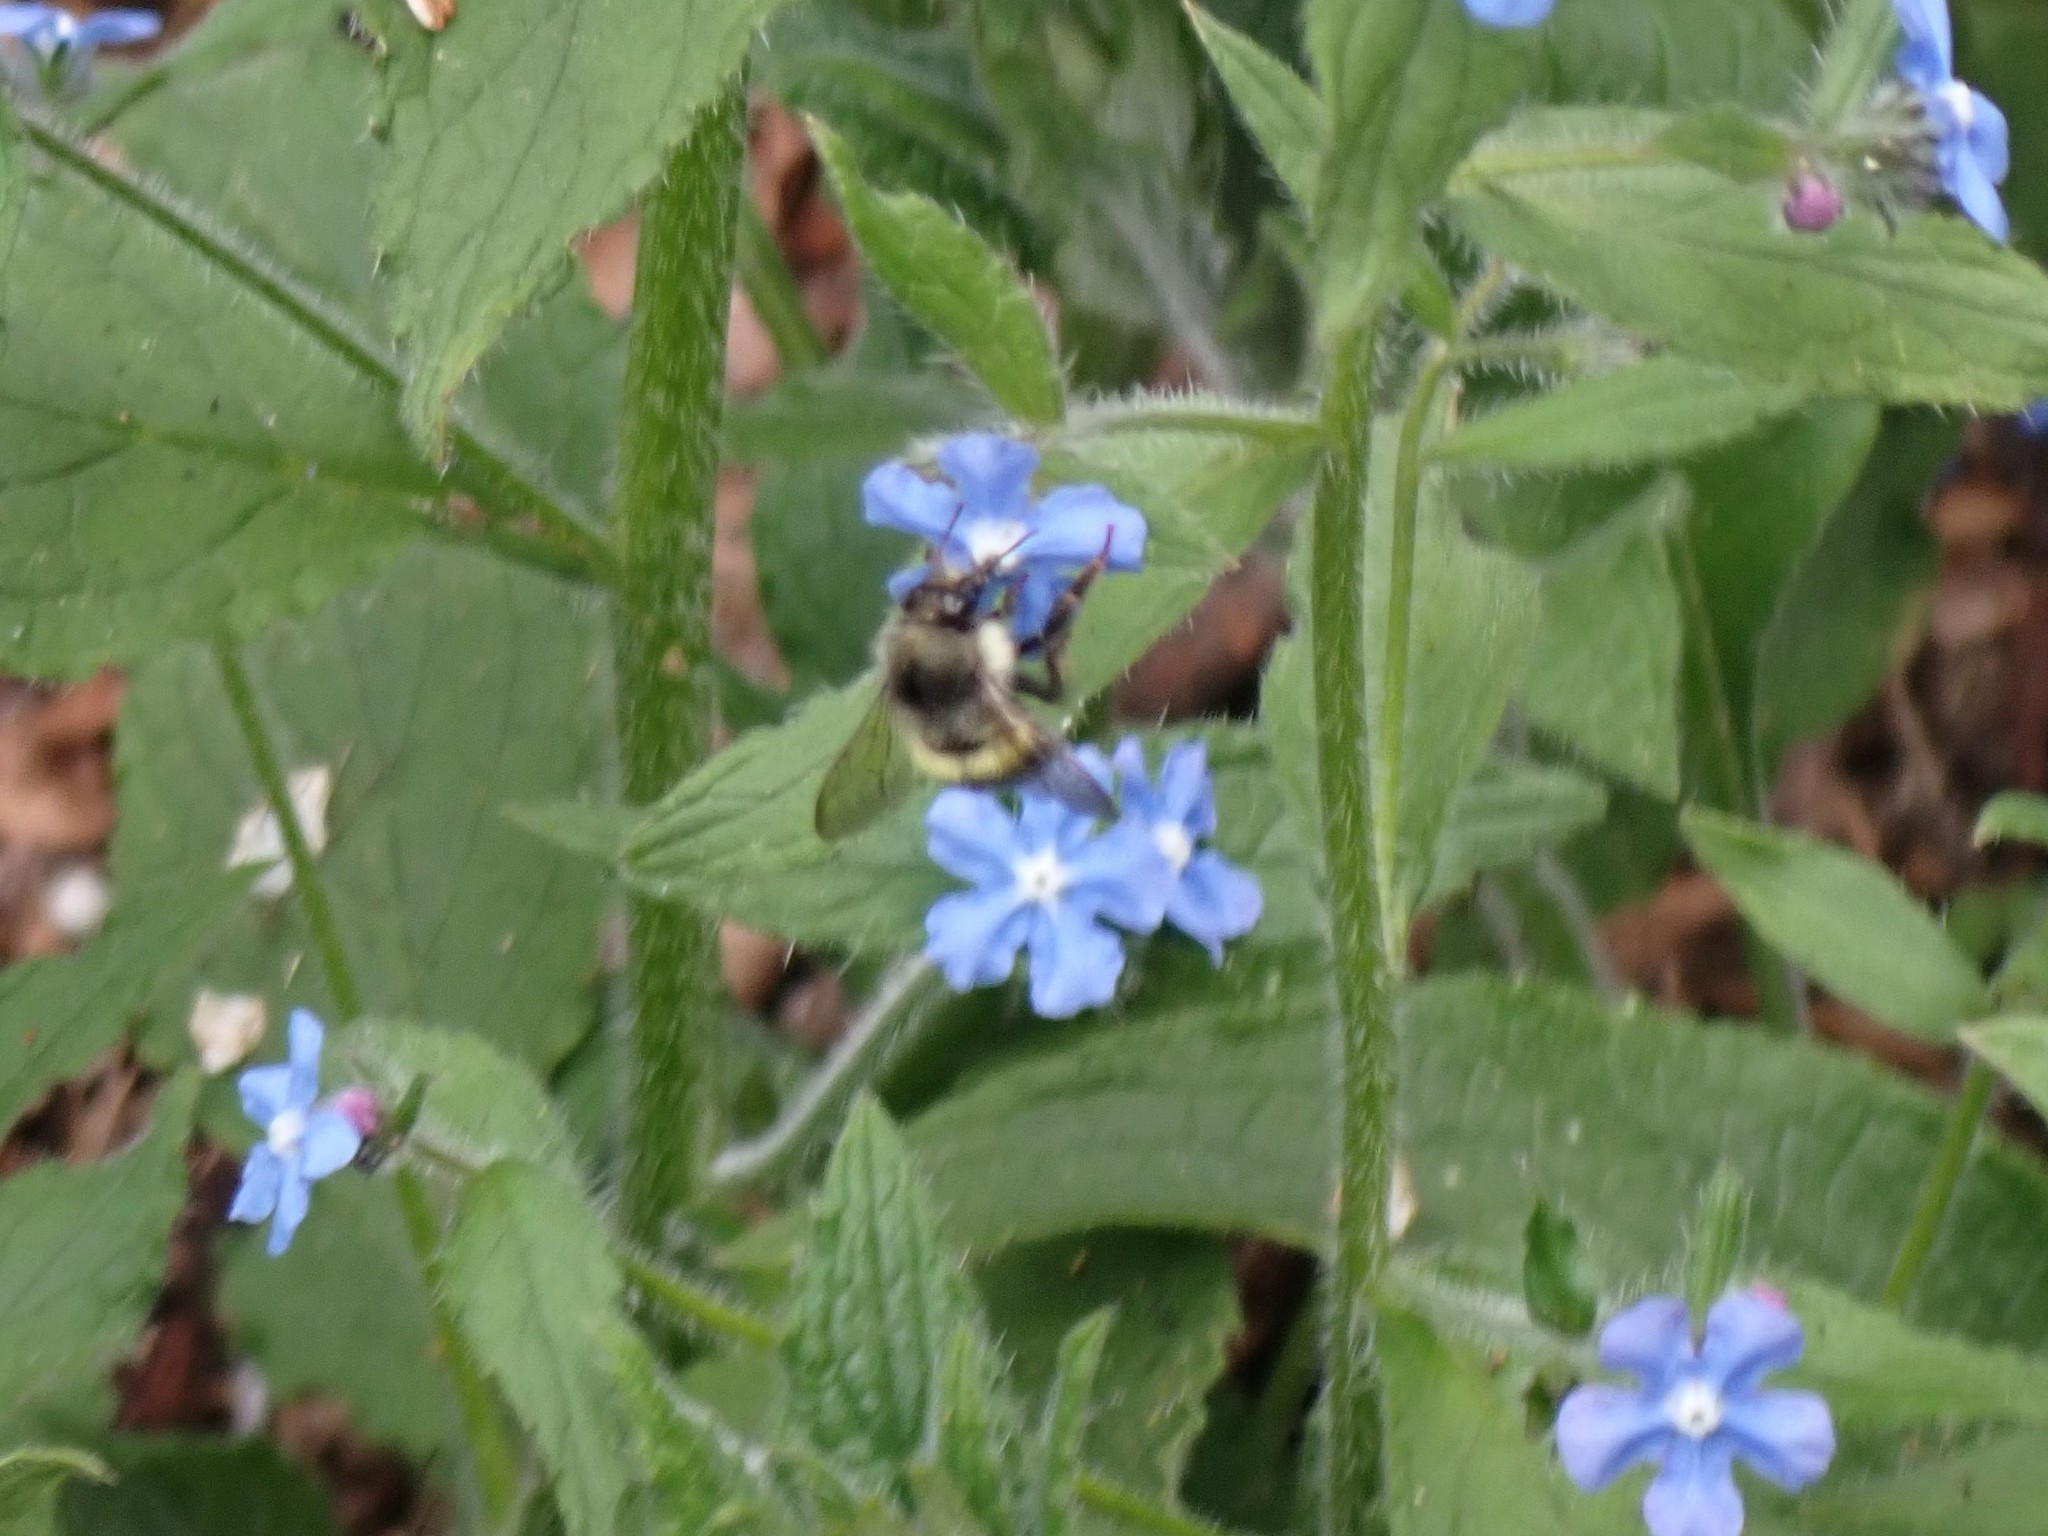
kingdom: Animalia
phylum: Arthropoda
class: Insecta
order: Hymenoptera
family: Apidae
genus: Bombus
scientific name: Bombus flavifrons
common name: Yellow head bumble bee
